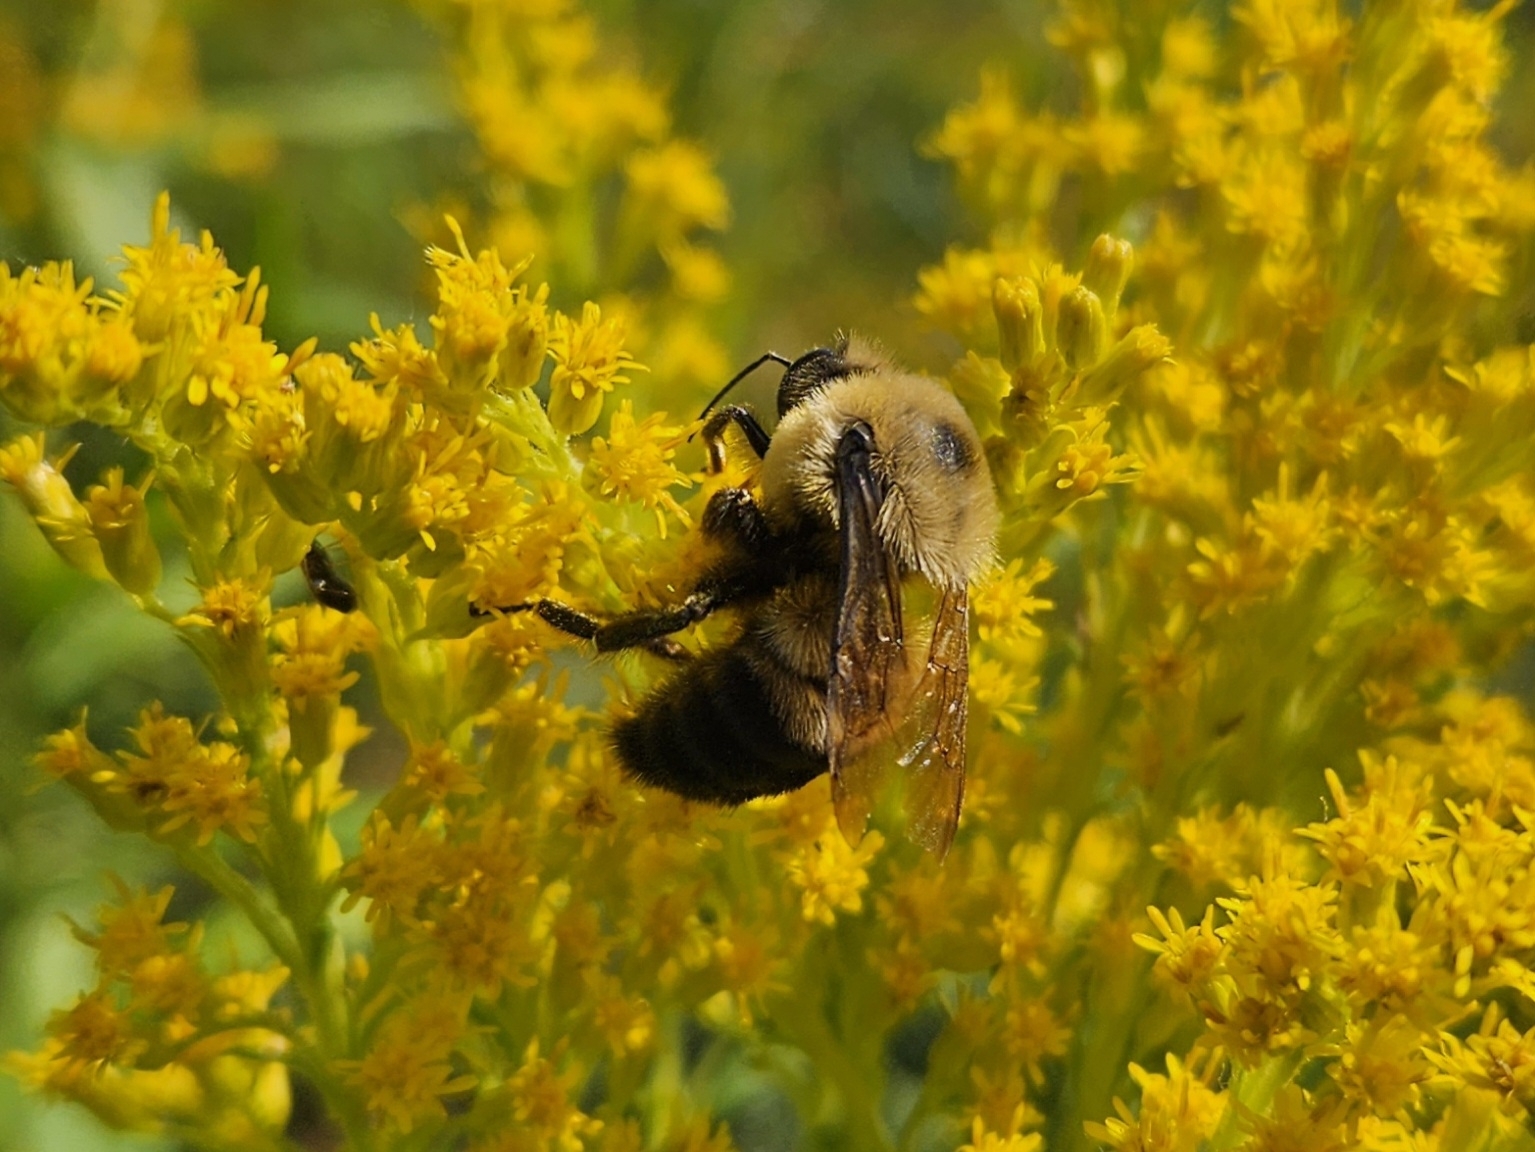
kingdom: Animalia
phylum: Arthropoda
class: Insecta
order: Hymenoptera
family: Apidae
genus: Bombus
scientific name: Bombus griseocollis
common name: Brown-belted bumble bee
